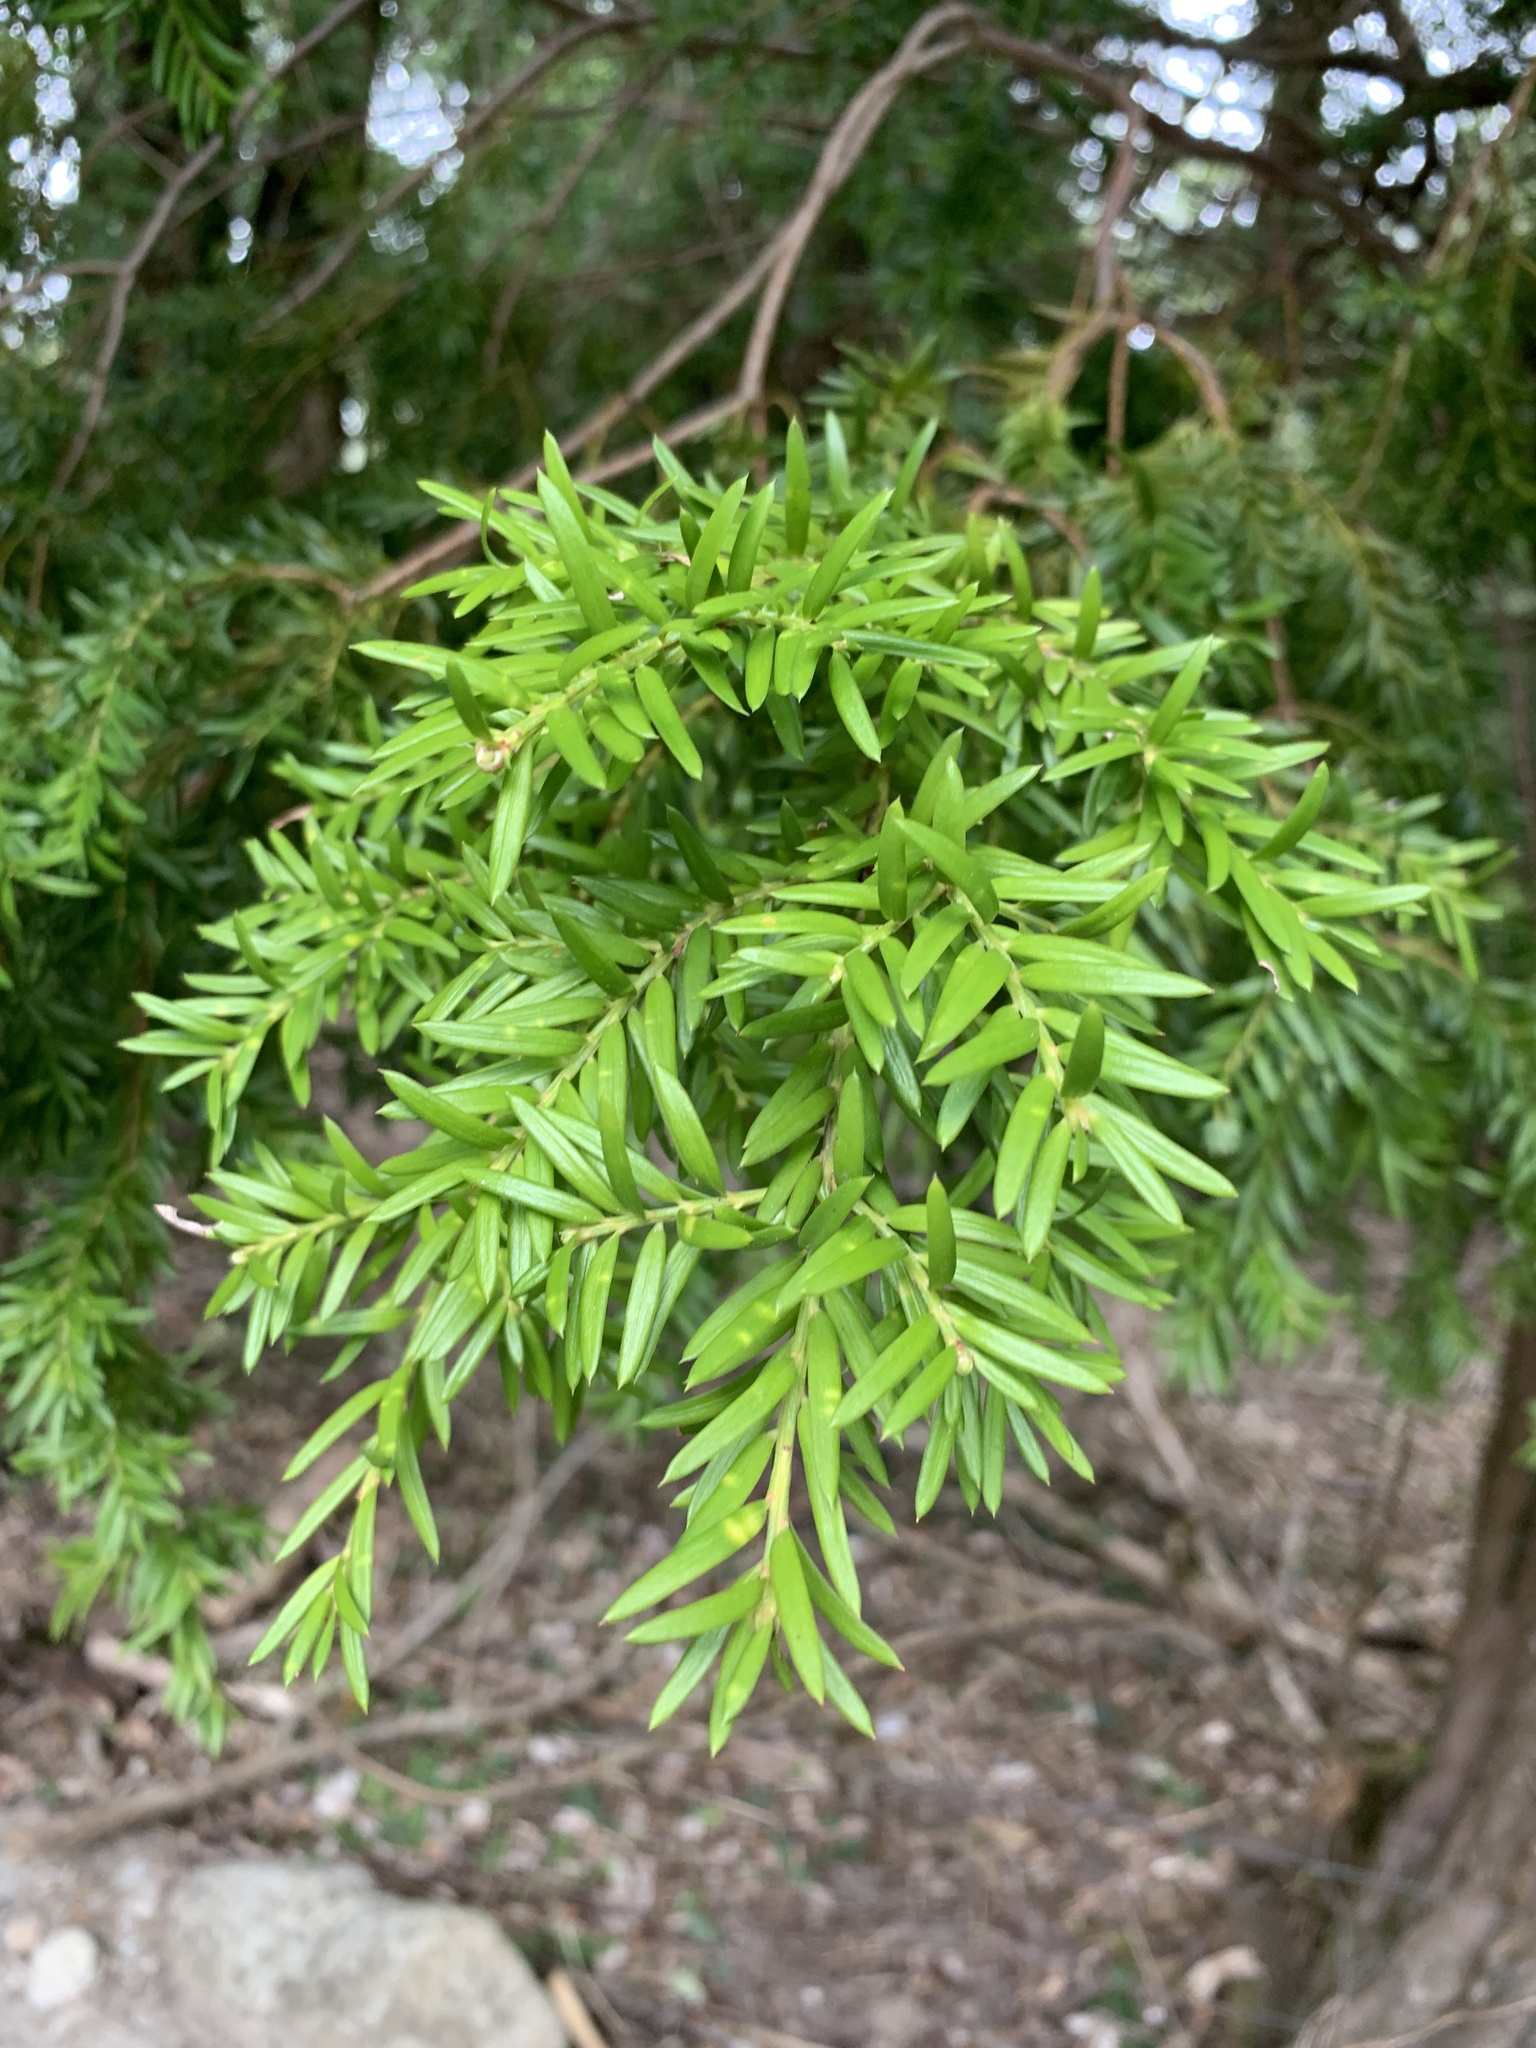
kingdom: Plantae
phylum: Tracheophyta
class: Pinopsida
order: Pinales
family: Podocarpaceae
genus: Saxegothaea
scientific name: Saxegothaea conspicua
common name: Prince albert's yew
